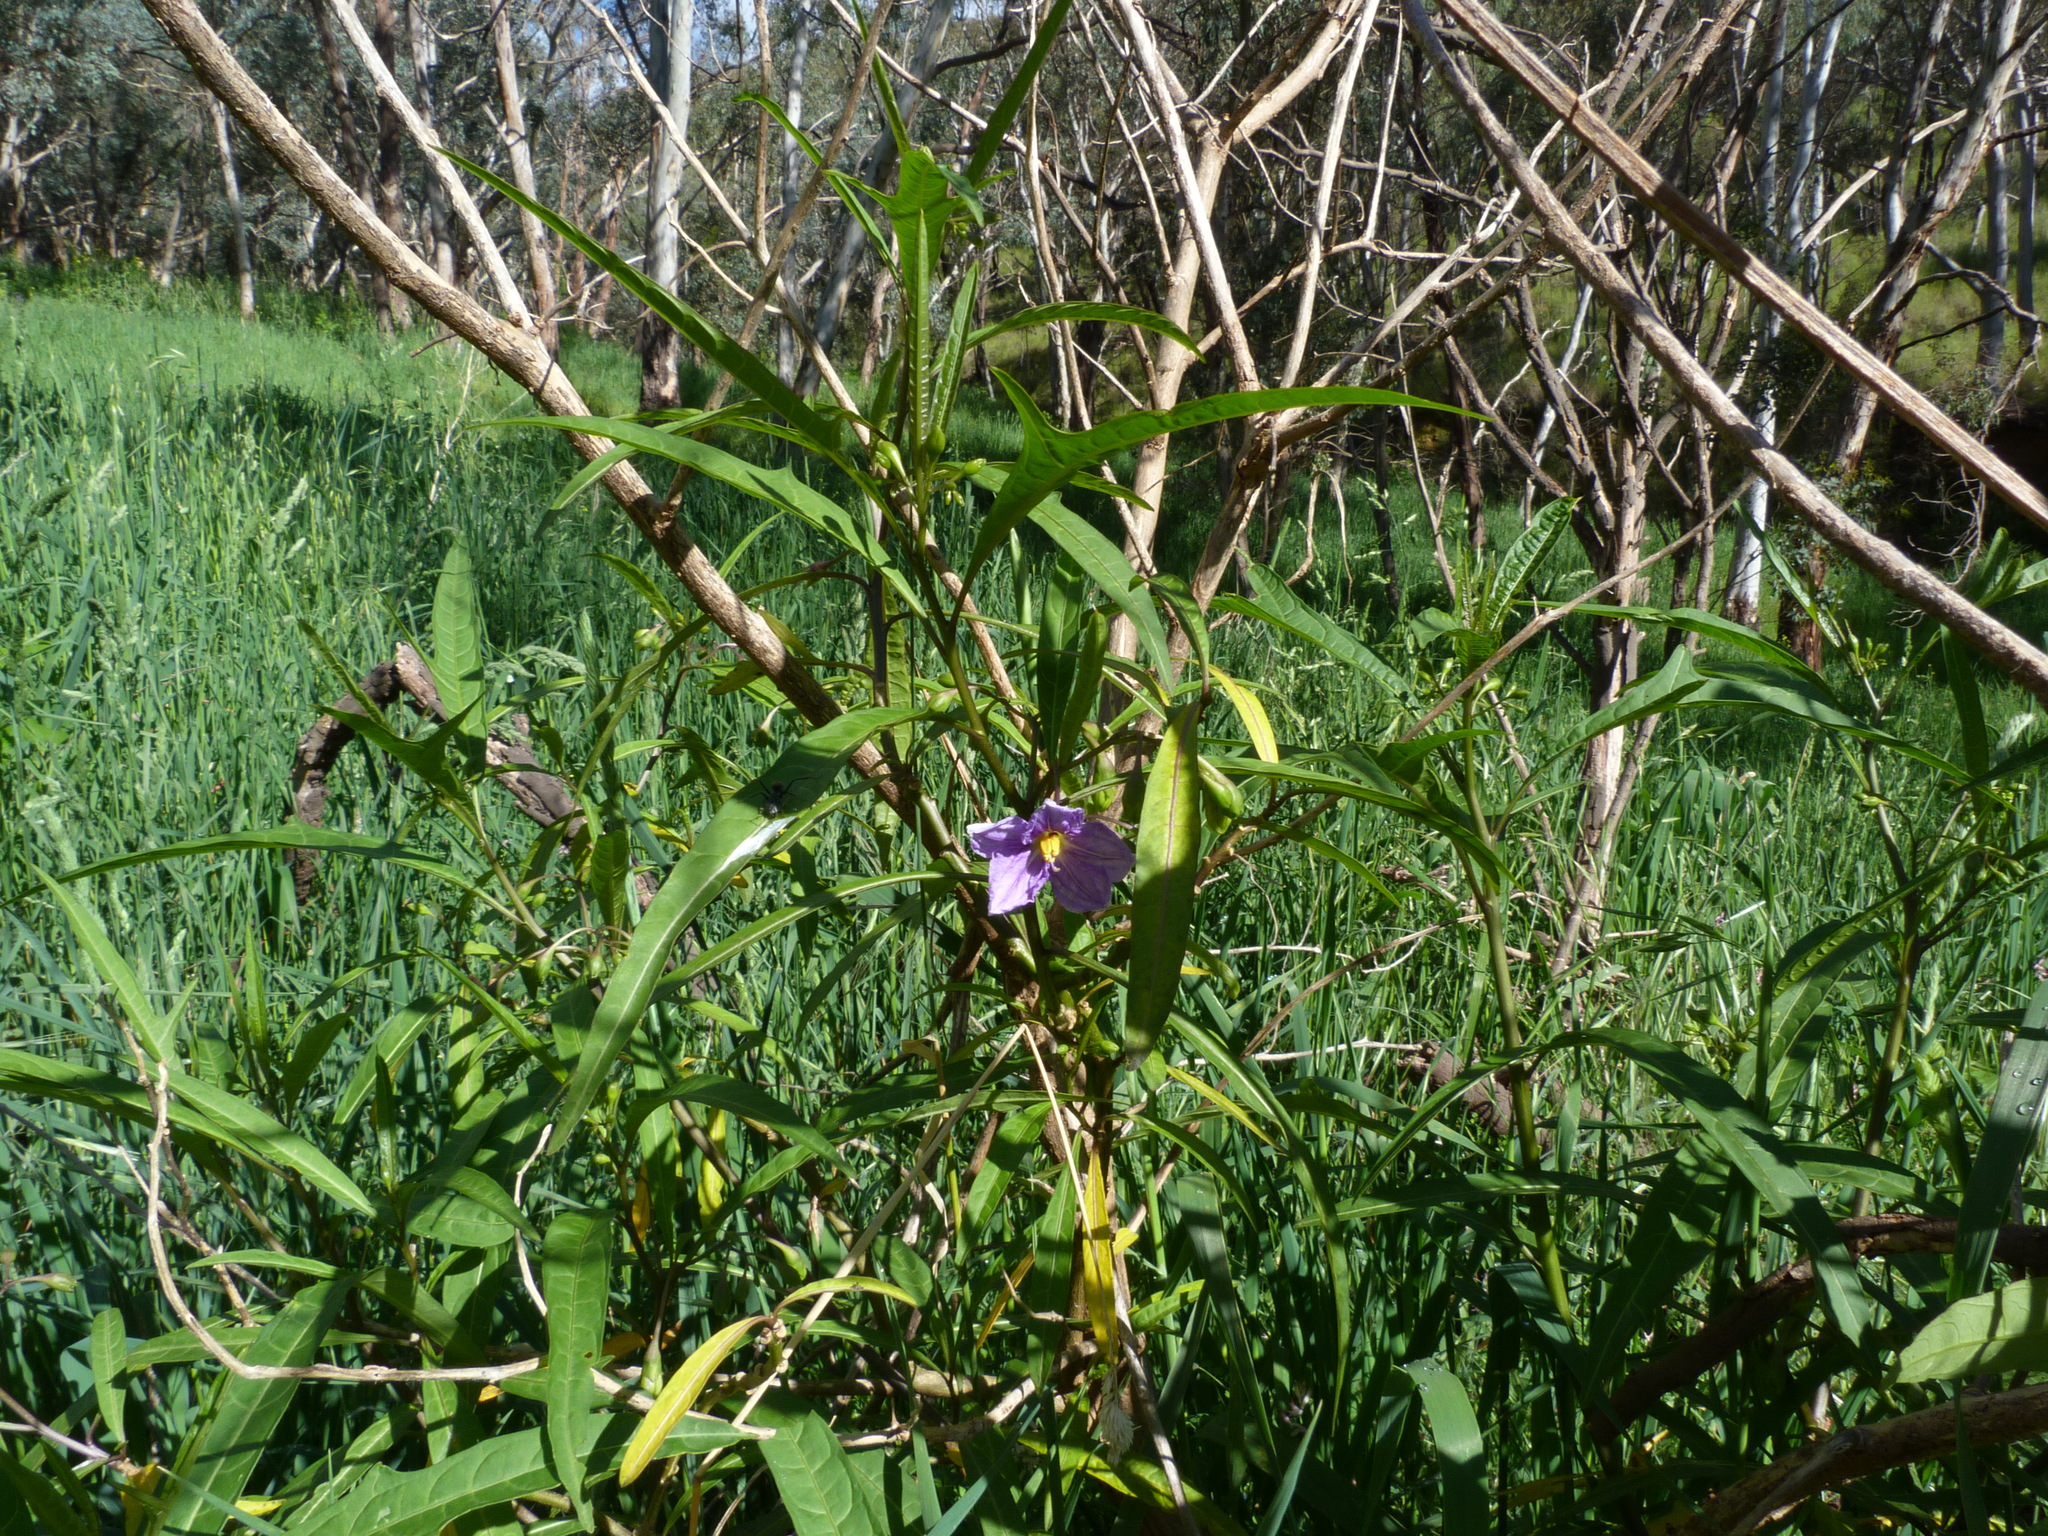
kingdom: Plantae
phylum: Tracheophyta
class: Magnoliopsida
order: Solanales
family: Solanaceae
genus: Solanum
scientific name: Solanum aviculare
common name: New zealand nightshade
